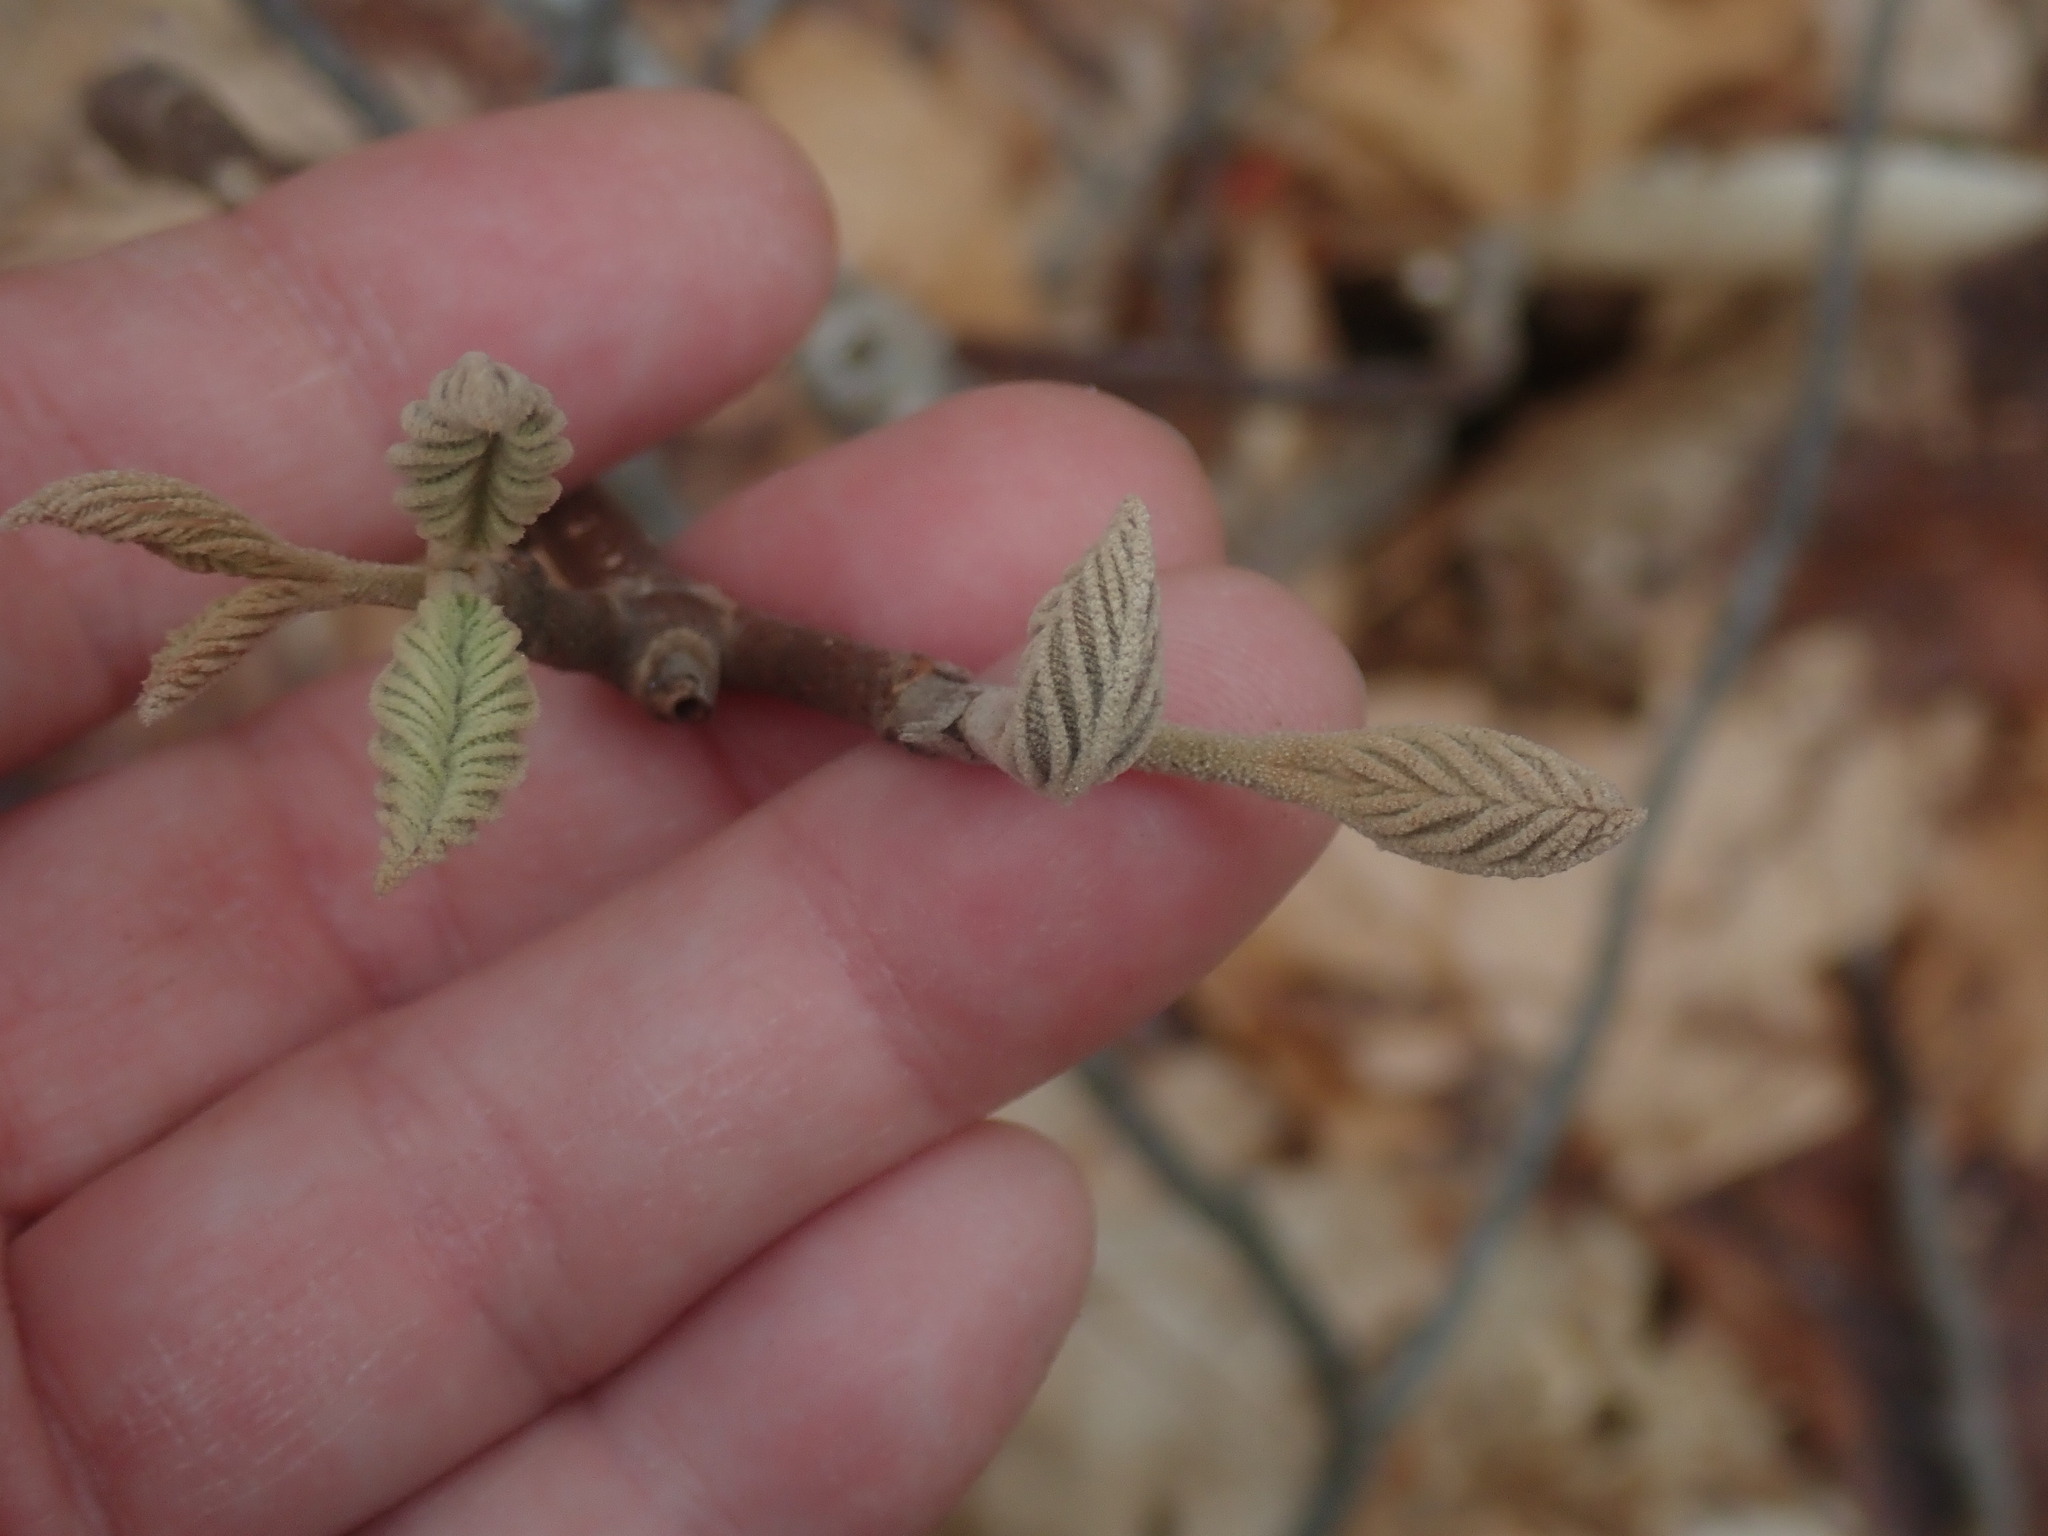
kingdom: Plantae
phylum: Tracheophyta
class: Magnoliopsida
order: Dipsacales
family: Viburnaceae
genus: Viburnum
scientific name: Viburnum lantanoides
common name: Hobblebush
